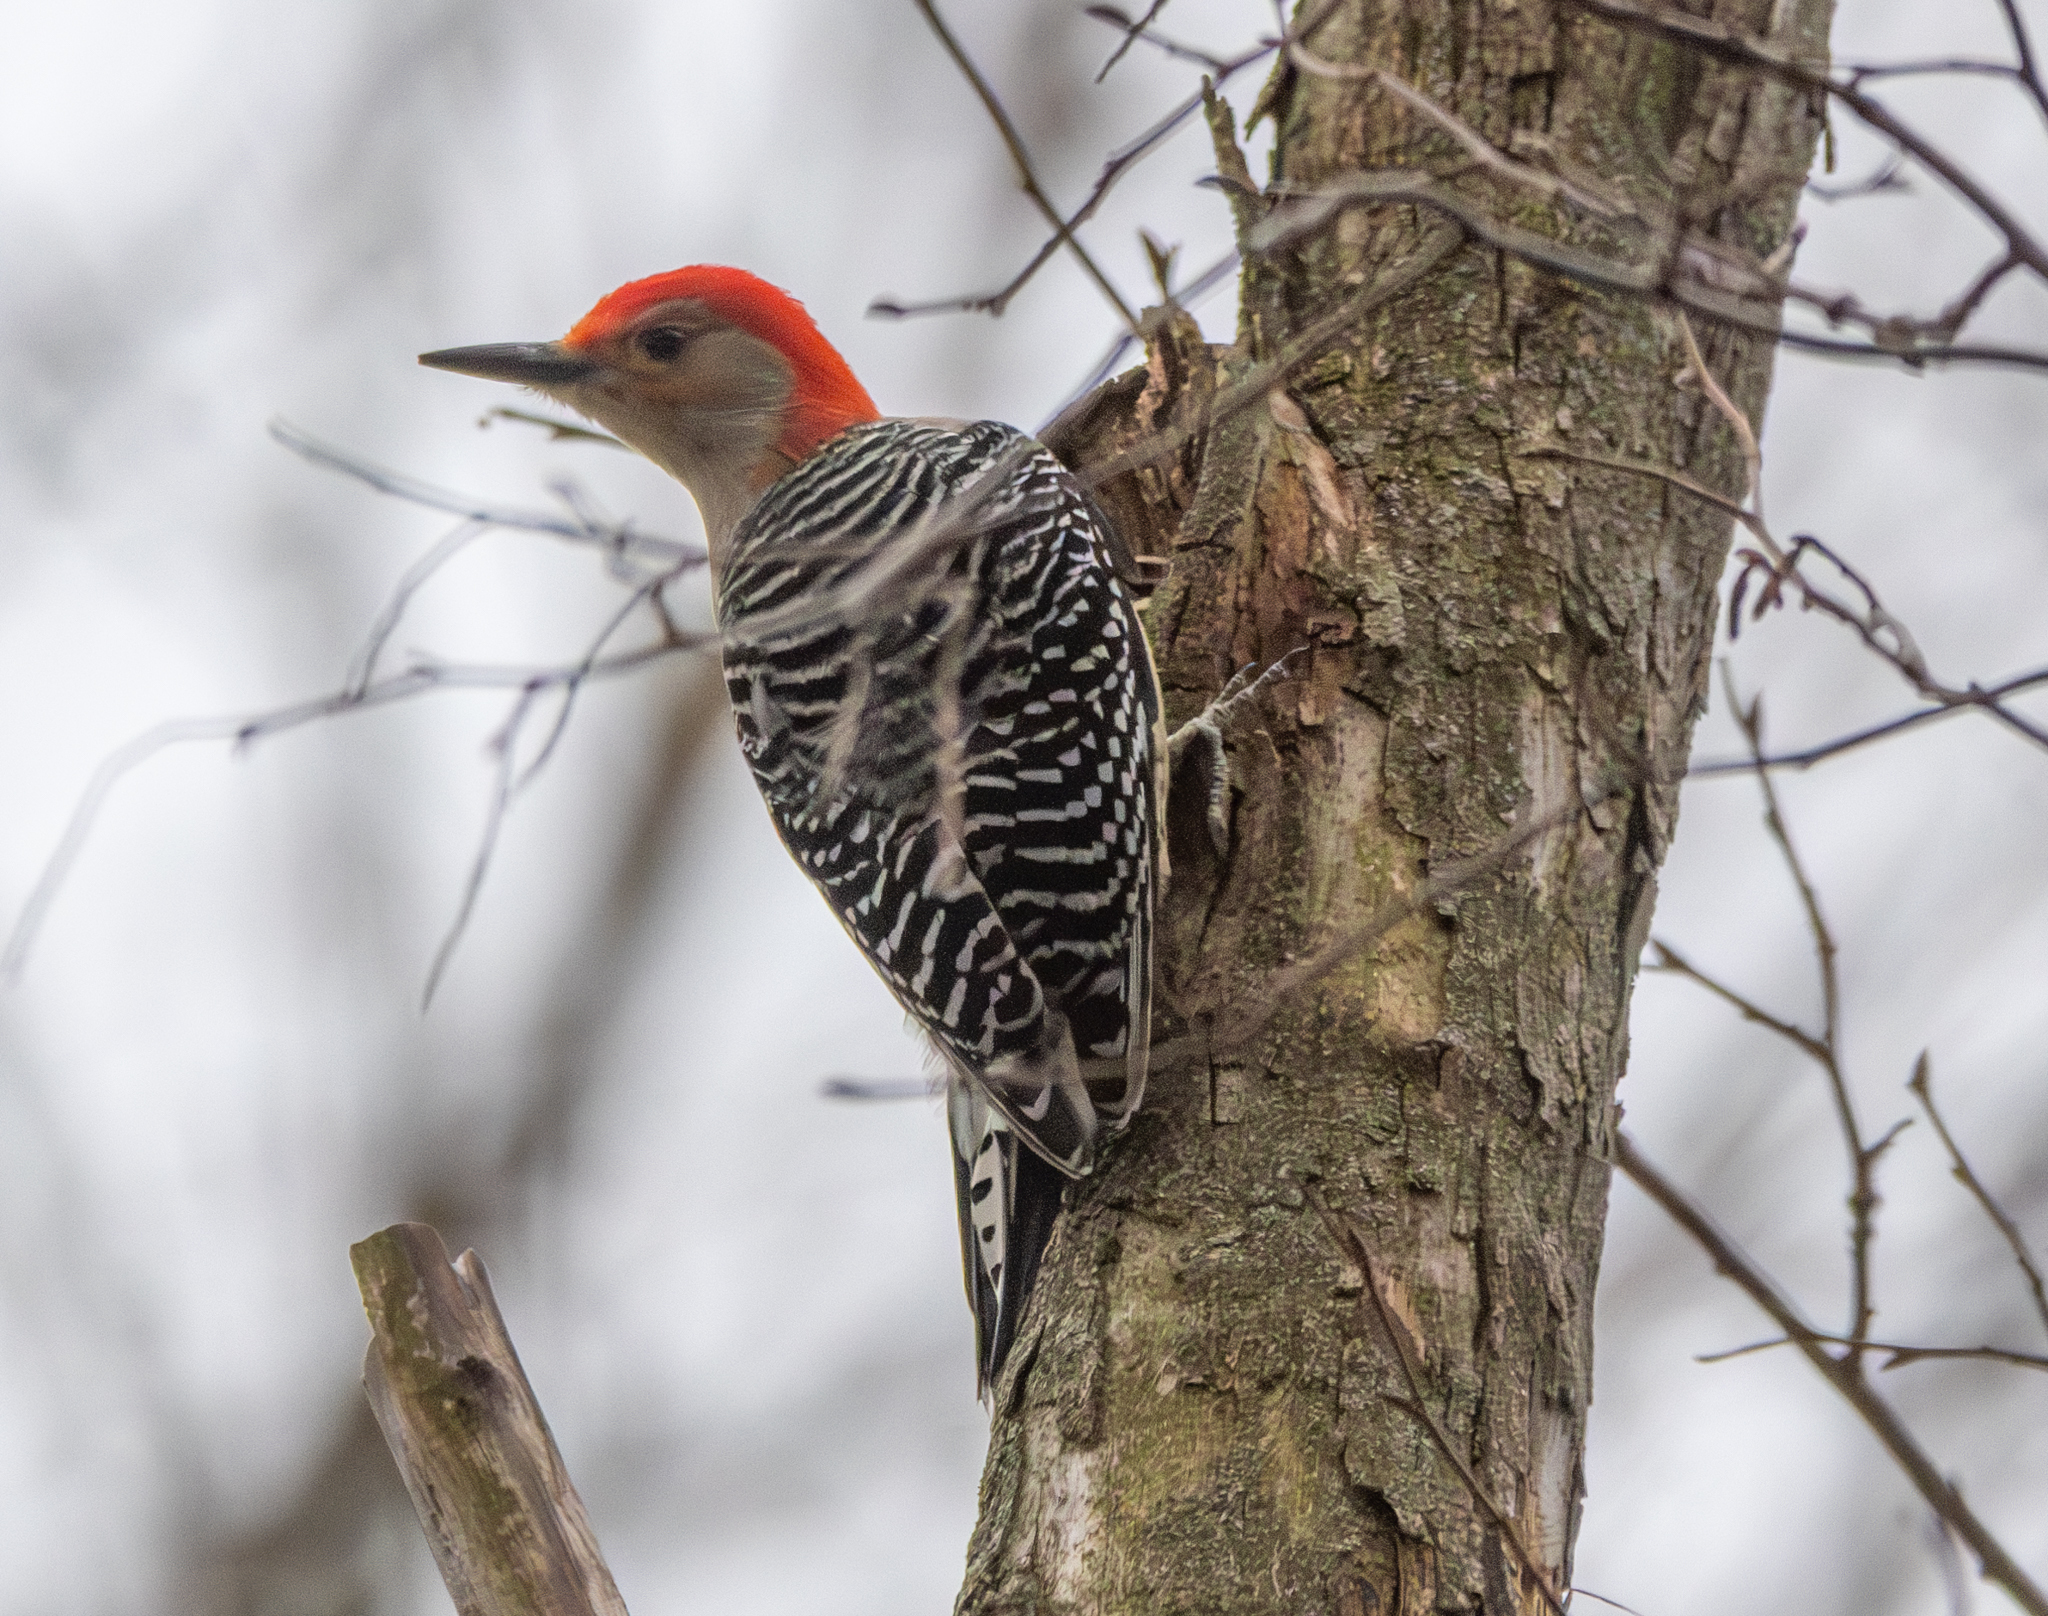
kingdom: Animalia
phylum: Chordata
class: Aves
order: Piciformes
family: Picidae
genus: Melanerpes
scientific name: Melanerpes carolinus
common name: Red-bellied woodpecker
